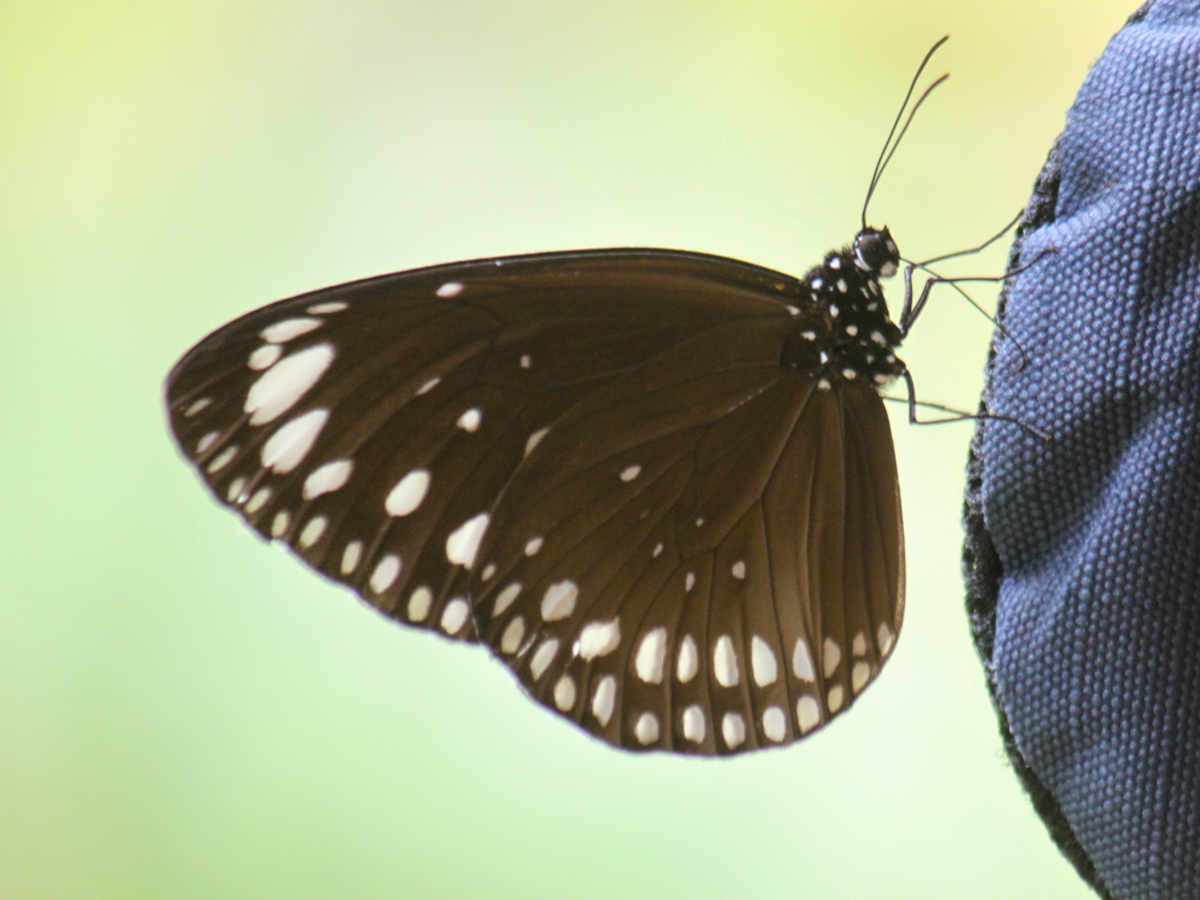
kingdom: Animalia
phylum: Arthropoda
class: Insecta
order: Lepidoptera
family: Nymphalidae
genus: Euploea
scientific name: Euploea crameri
